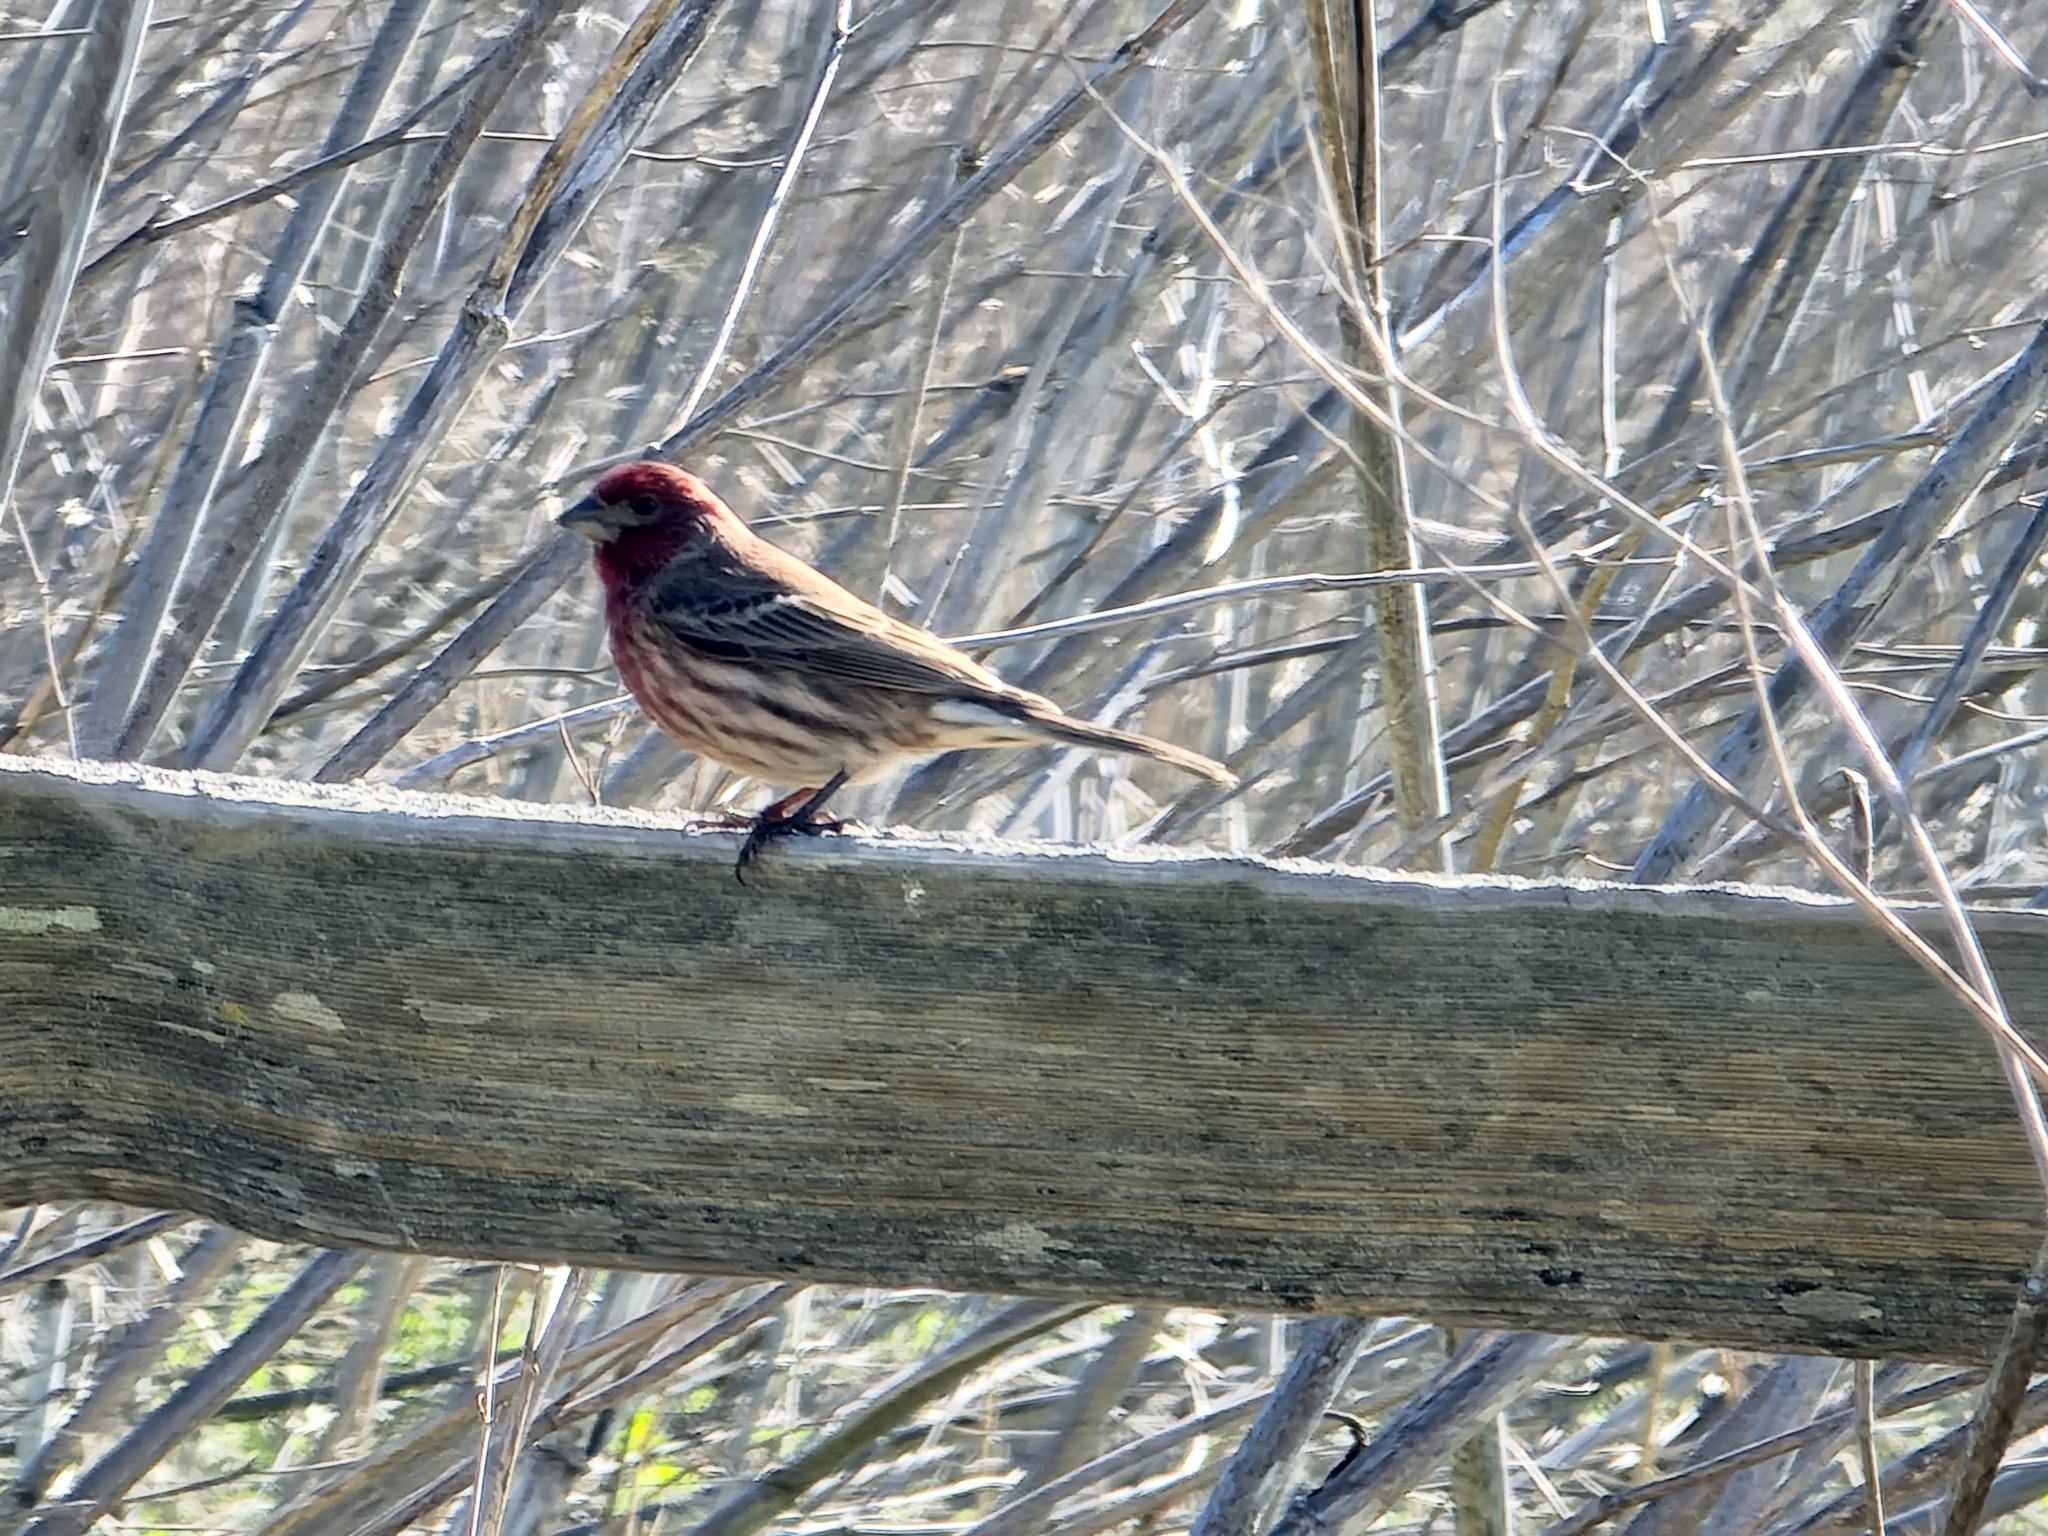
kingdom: Animalia
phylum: Chordata
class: Aves
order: Passeriformes
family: Fringillidae
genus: Haemorhous
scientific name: Haemorhous mexicanus
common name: House finch
